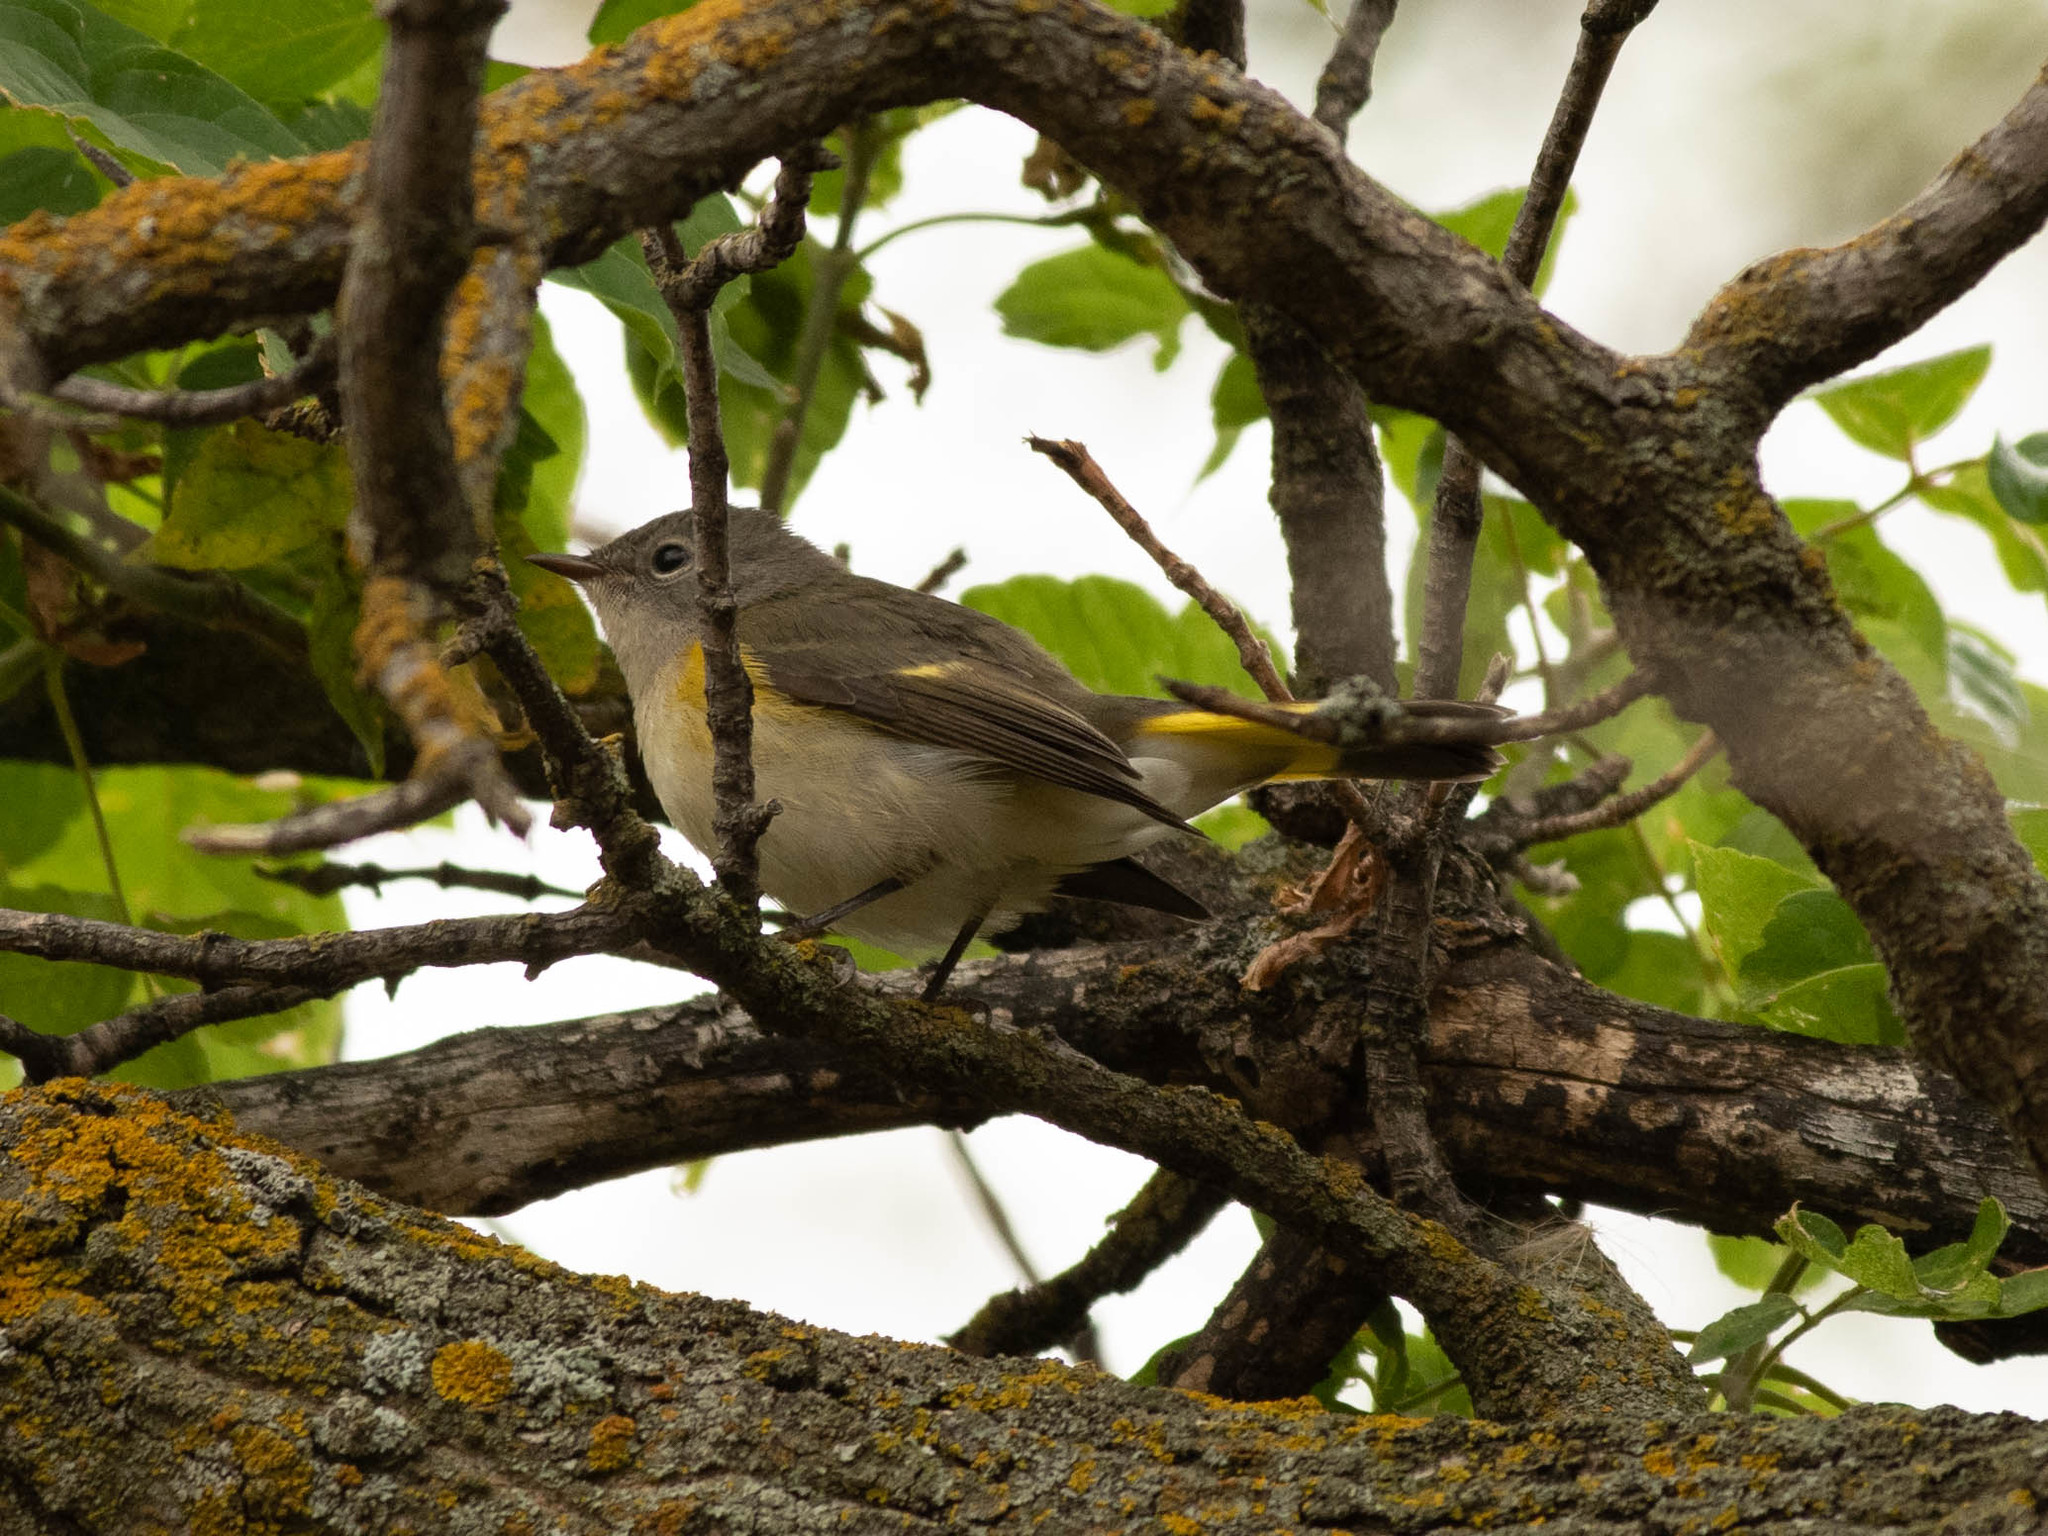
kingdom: Animalia
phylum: Chordata
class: Aves
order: Passeriformes
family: Parulidae
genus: Setophaga
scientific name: Setophaga ruticilla
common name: American redstart
